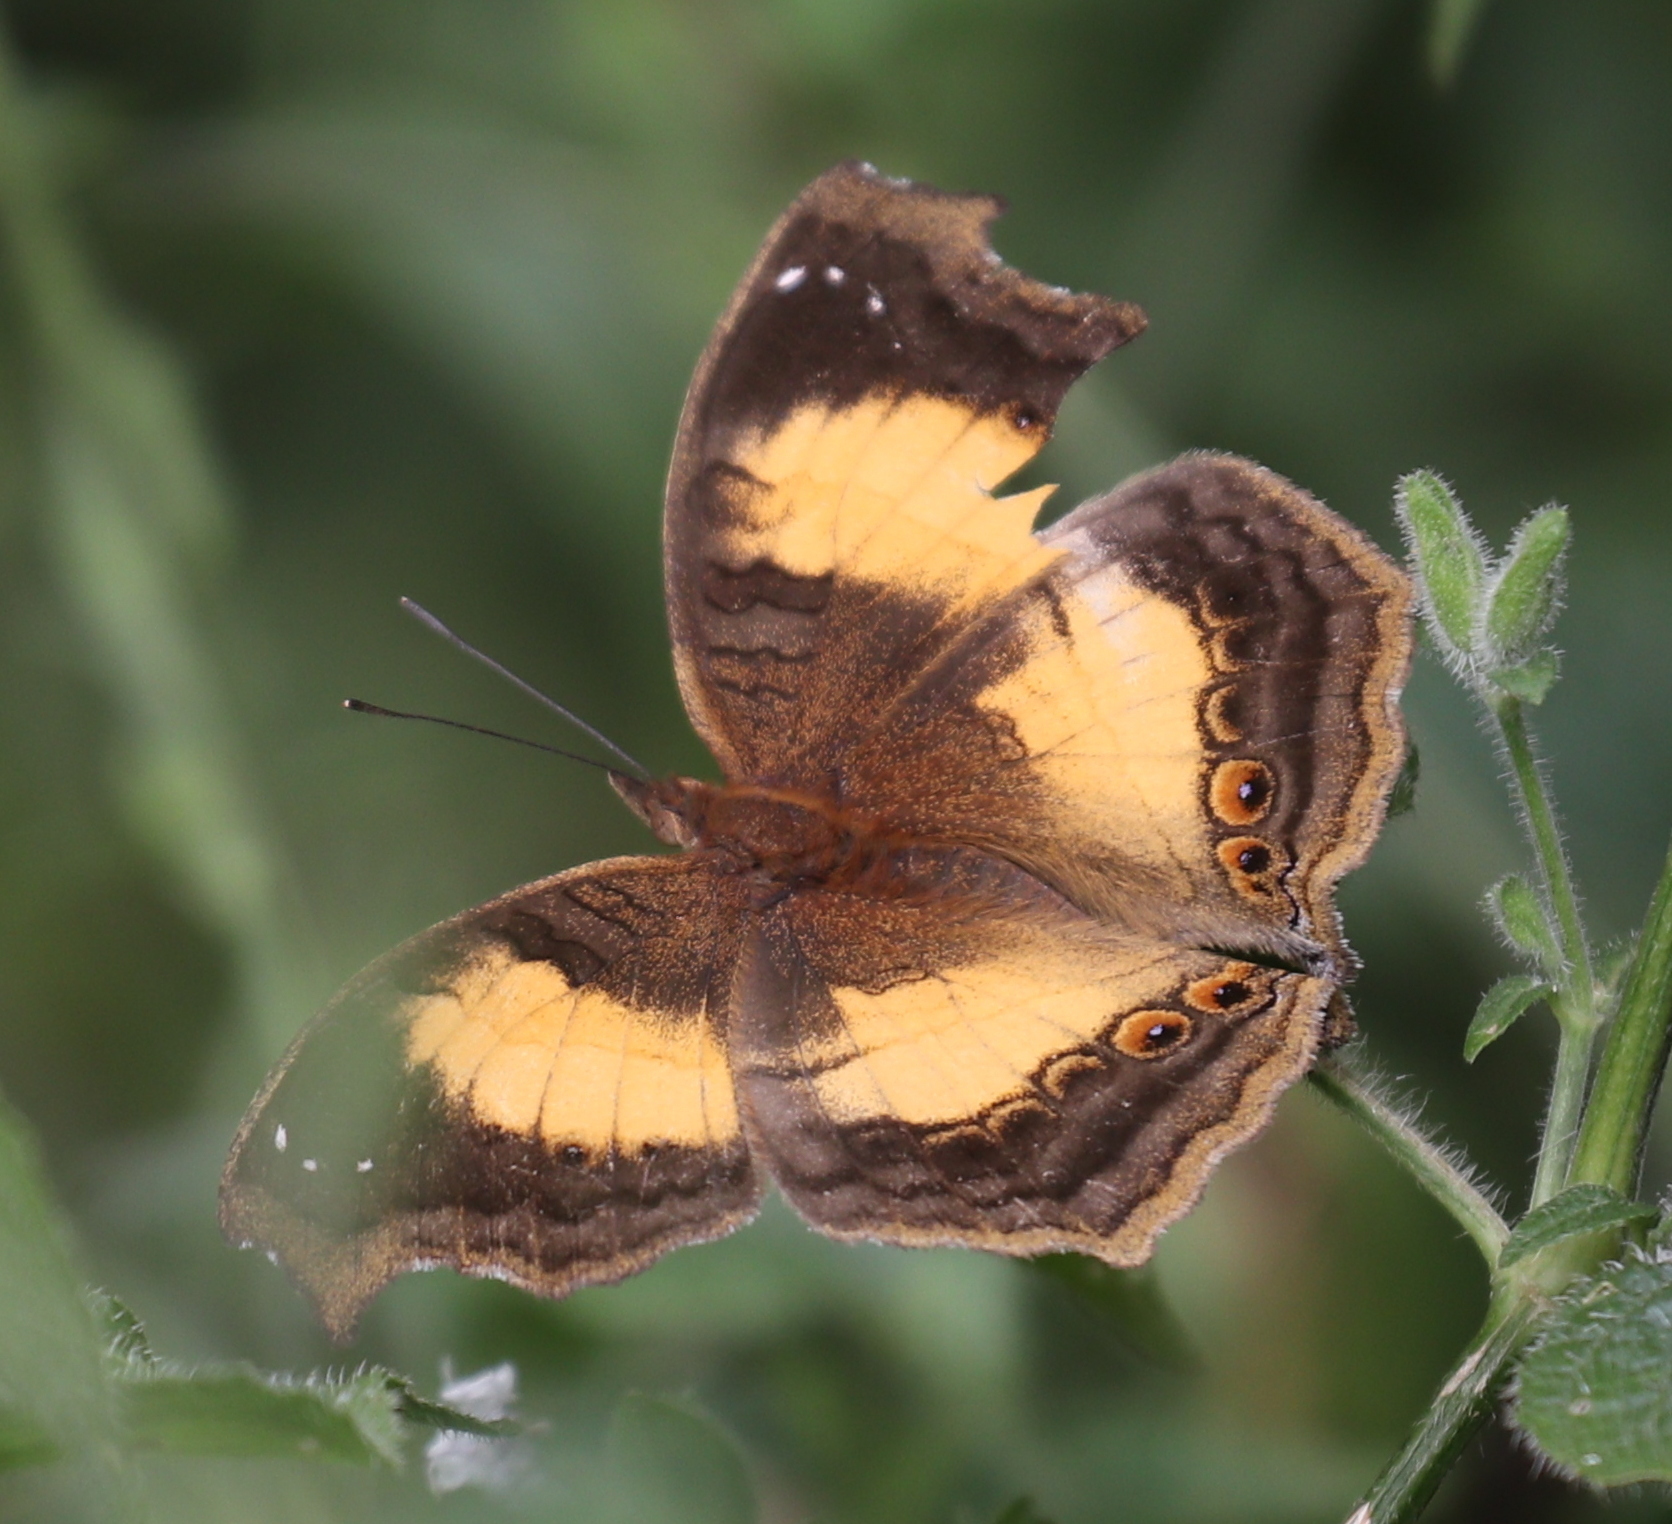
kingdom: Animalia
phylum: Arthropoda
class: Insecta
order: Lepidoptera
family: Nymphalidae
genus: Junonia
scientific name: Junonia terea
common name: Soldier pansy
